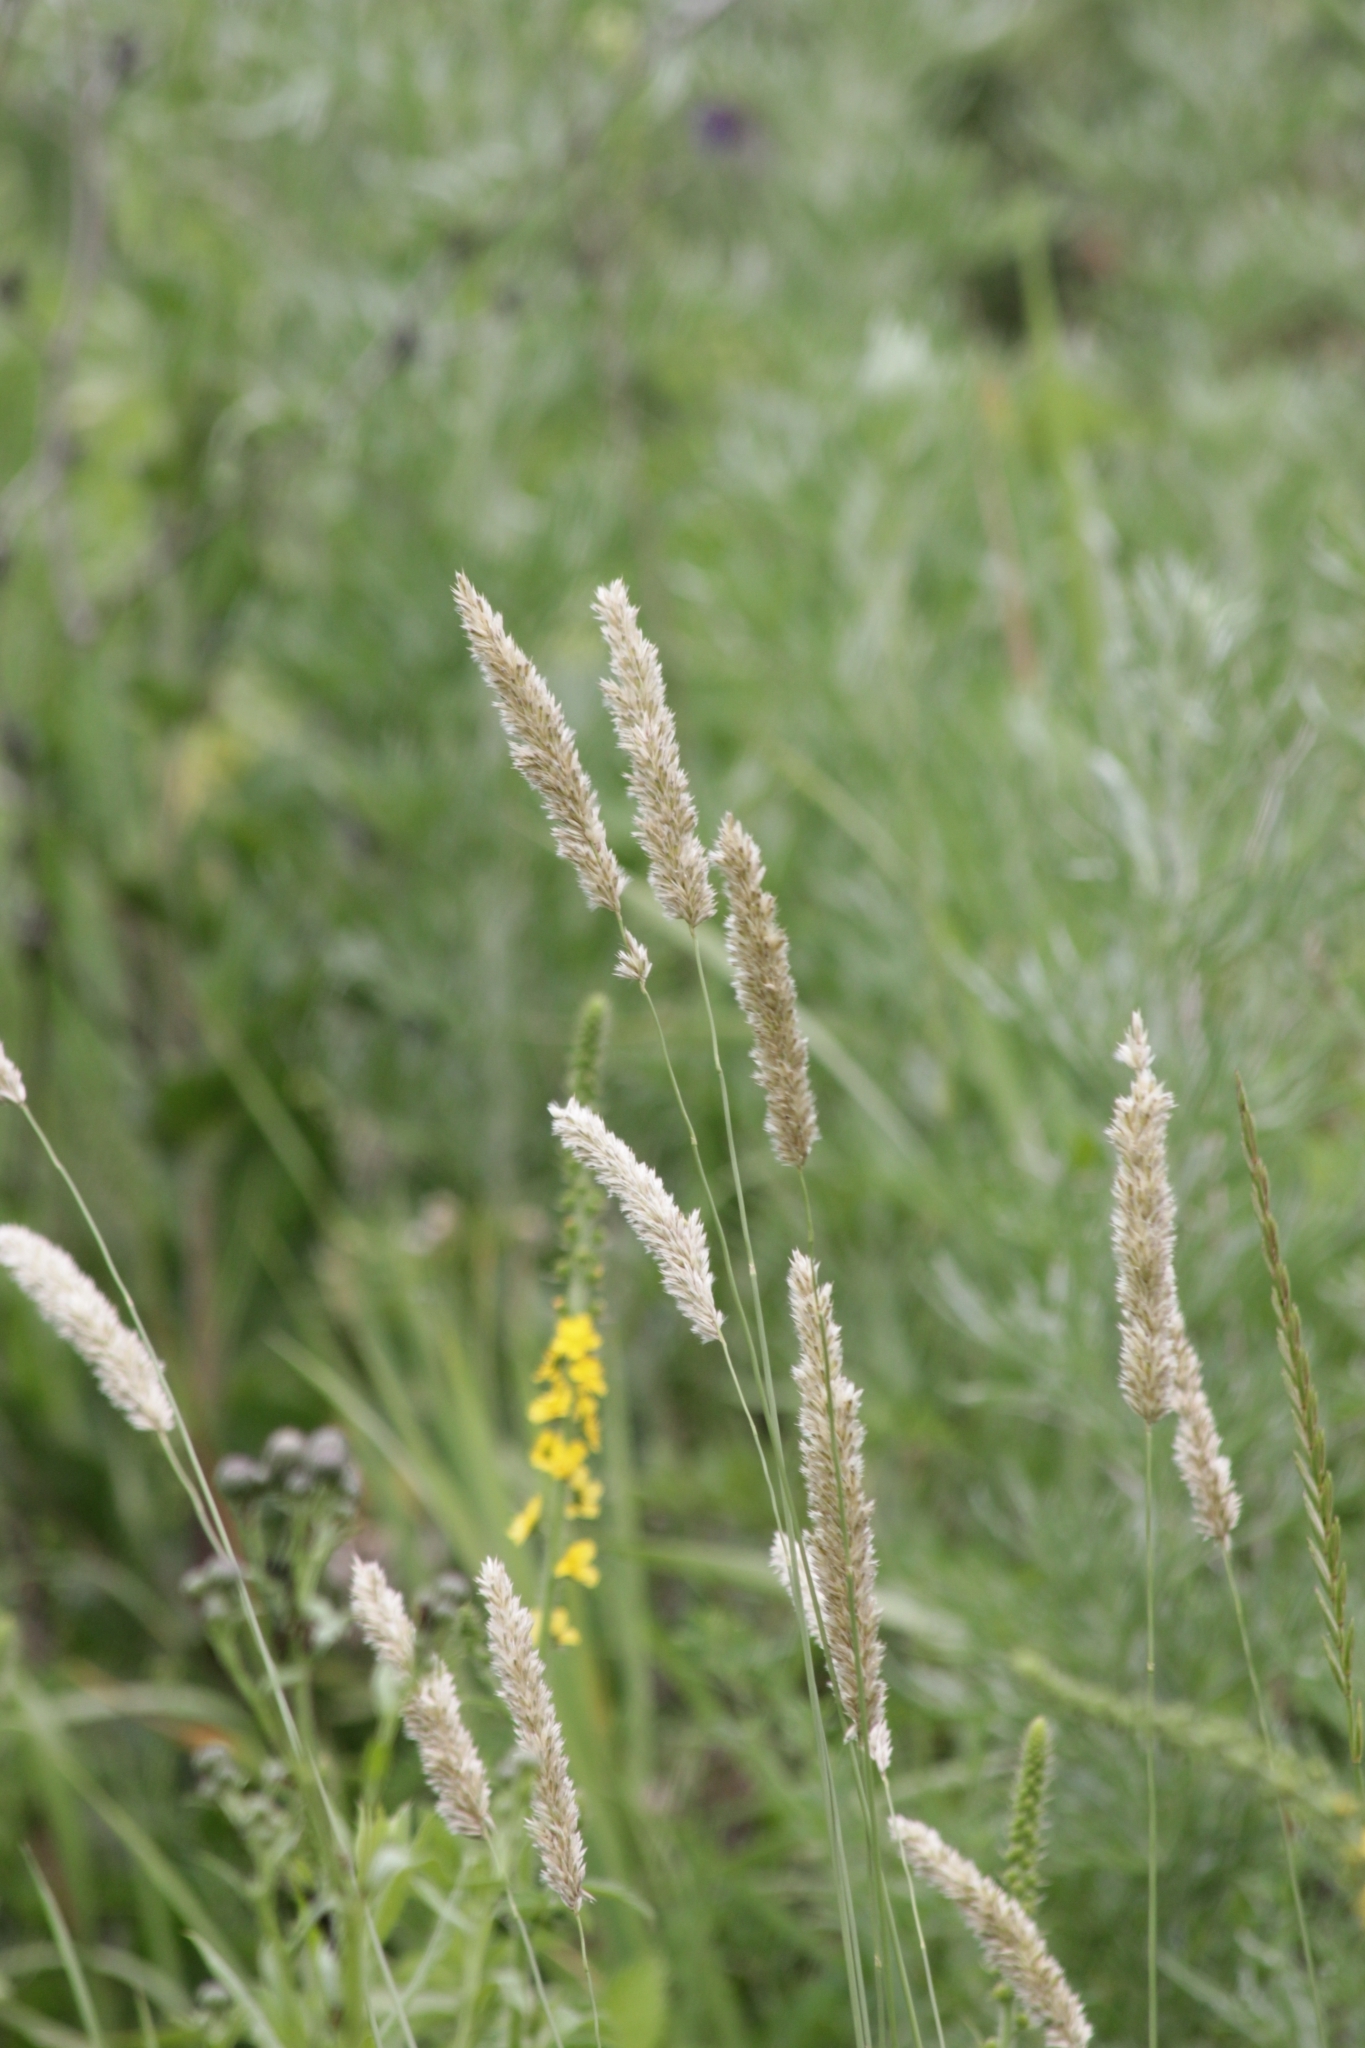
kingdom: Plantae
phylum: Tracheophyta
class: Liliopsida
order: Poales
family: Poaceae
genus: Melica
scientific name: Melica transsilvanica
